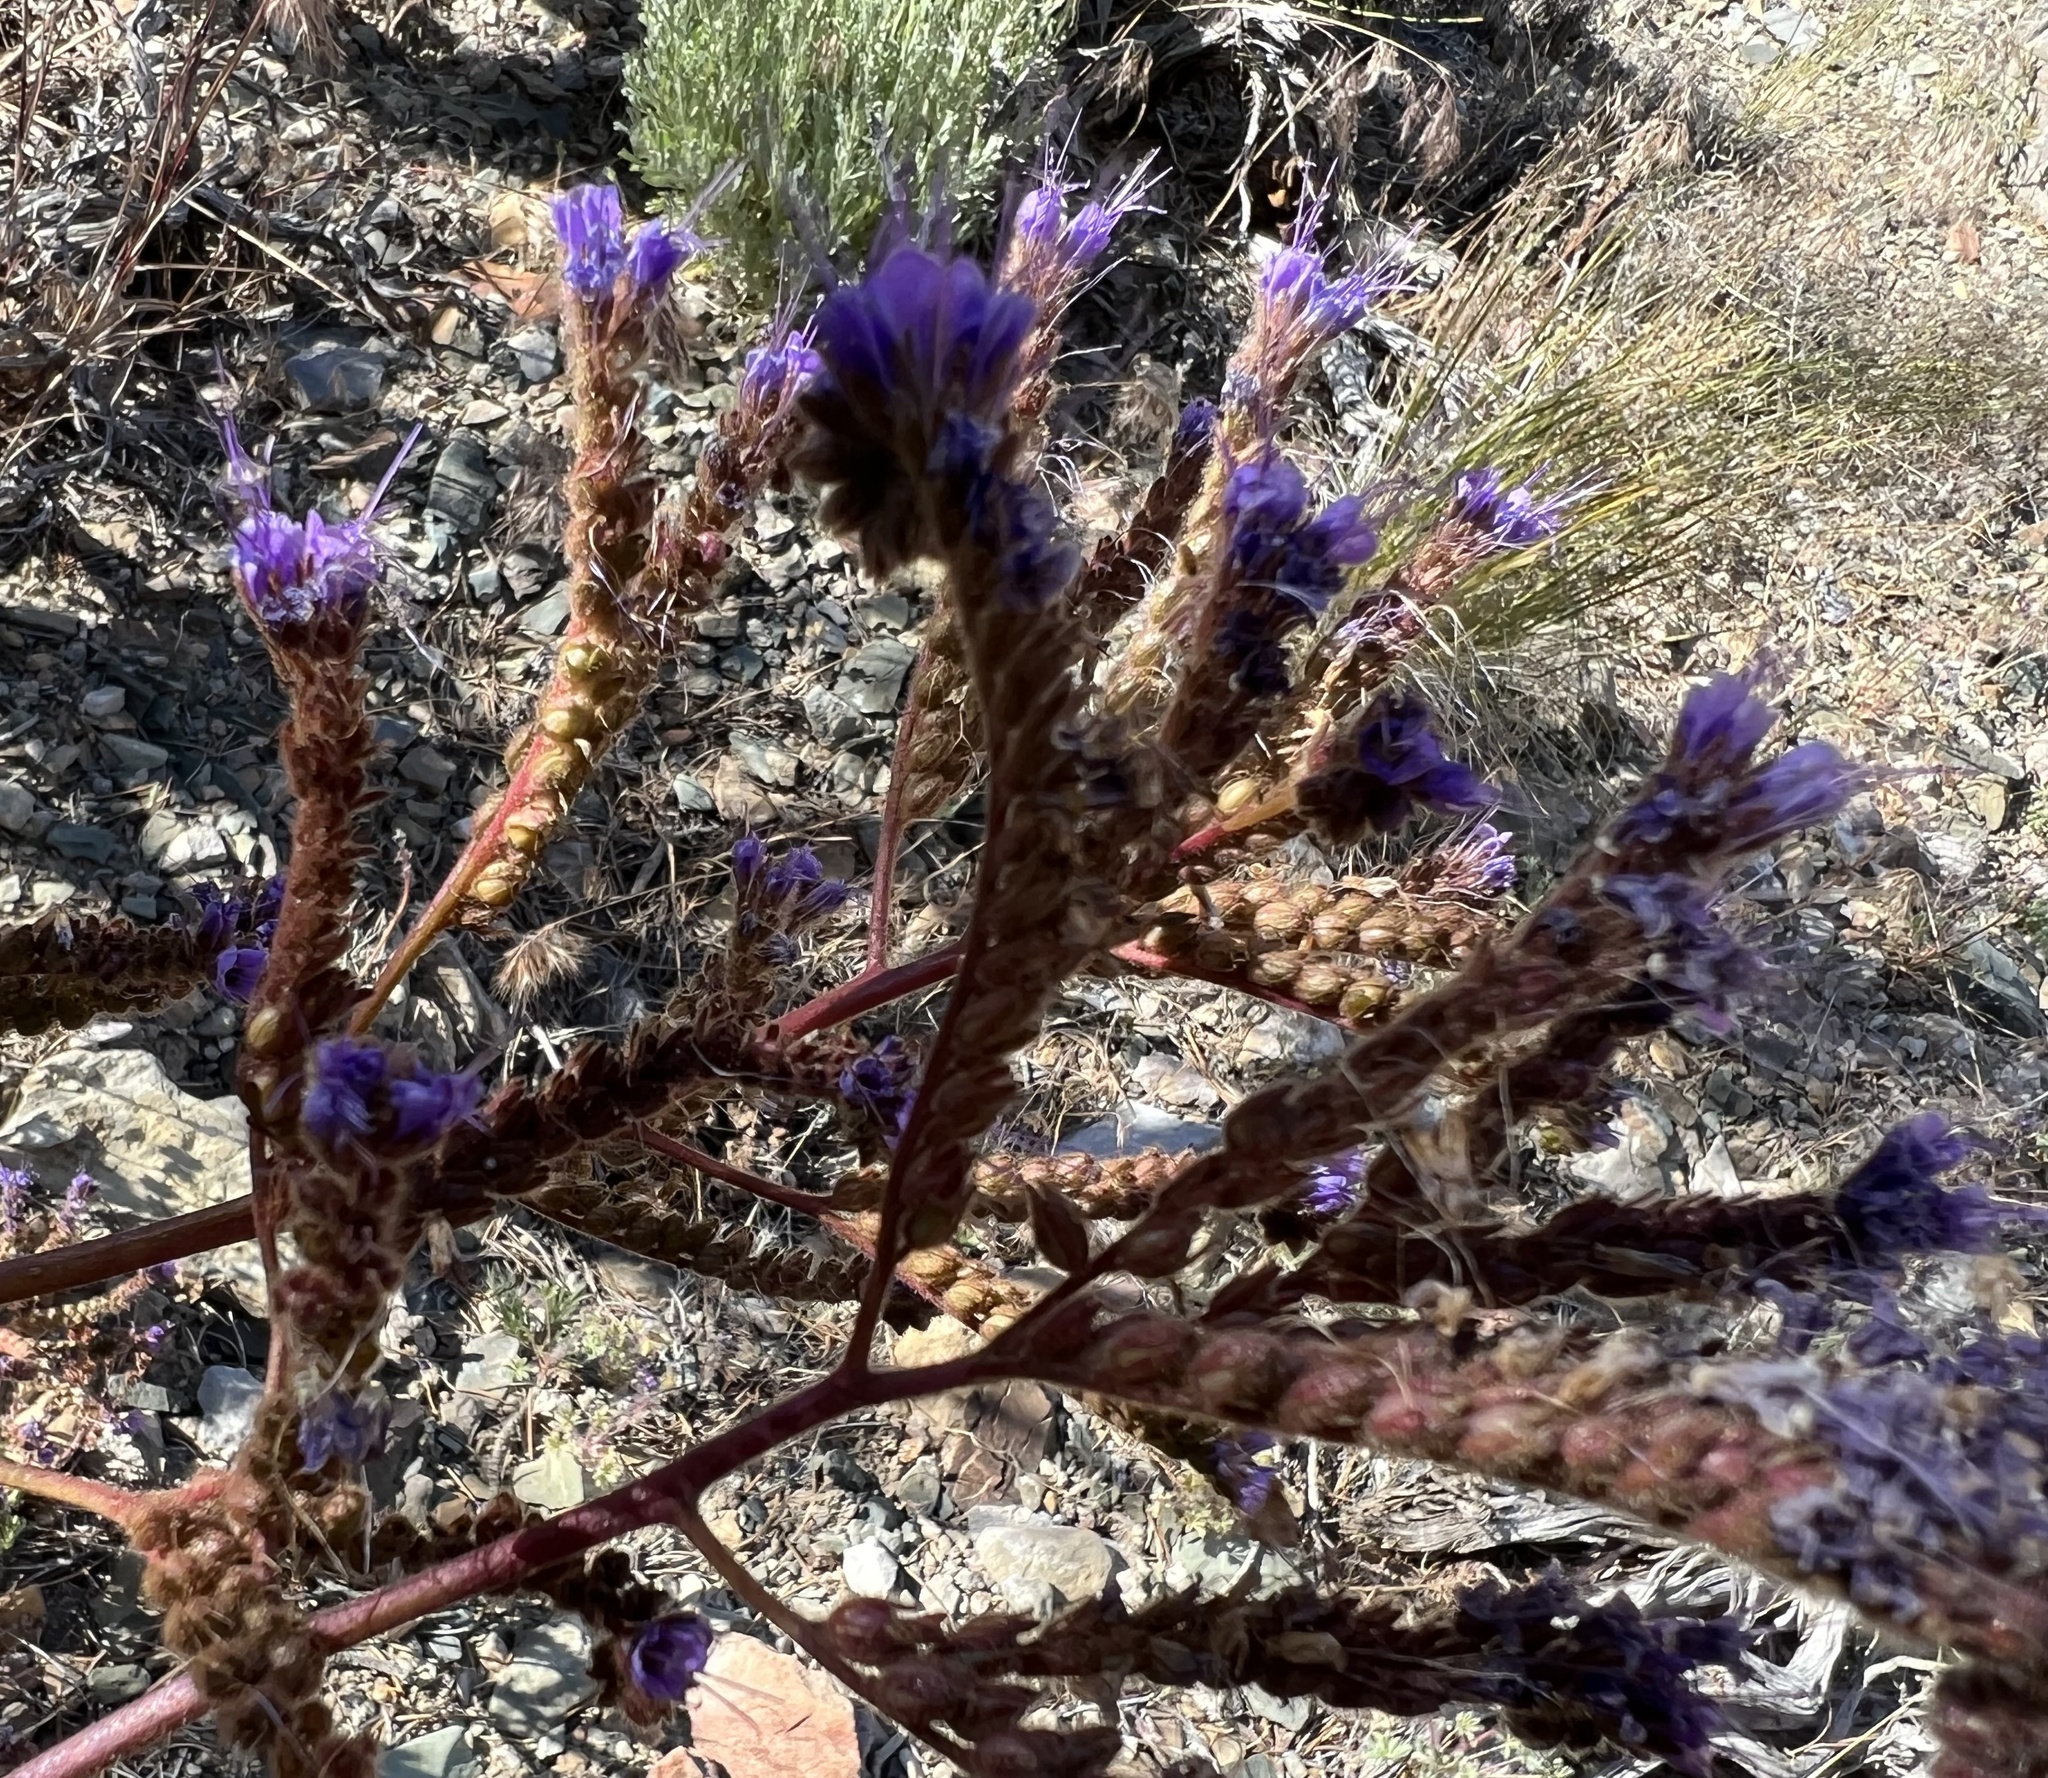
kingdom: Plantae
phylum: Tracheophyta
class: Magnoliopsida
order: Boraginales
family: Hydrophyllaceae
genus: Phacelia
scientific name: Phacelia crenulata
